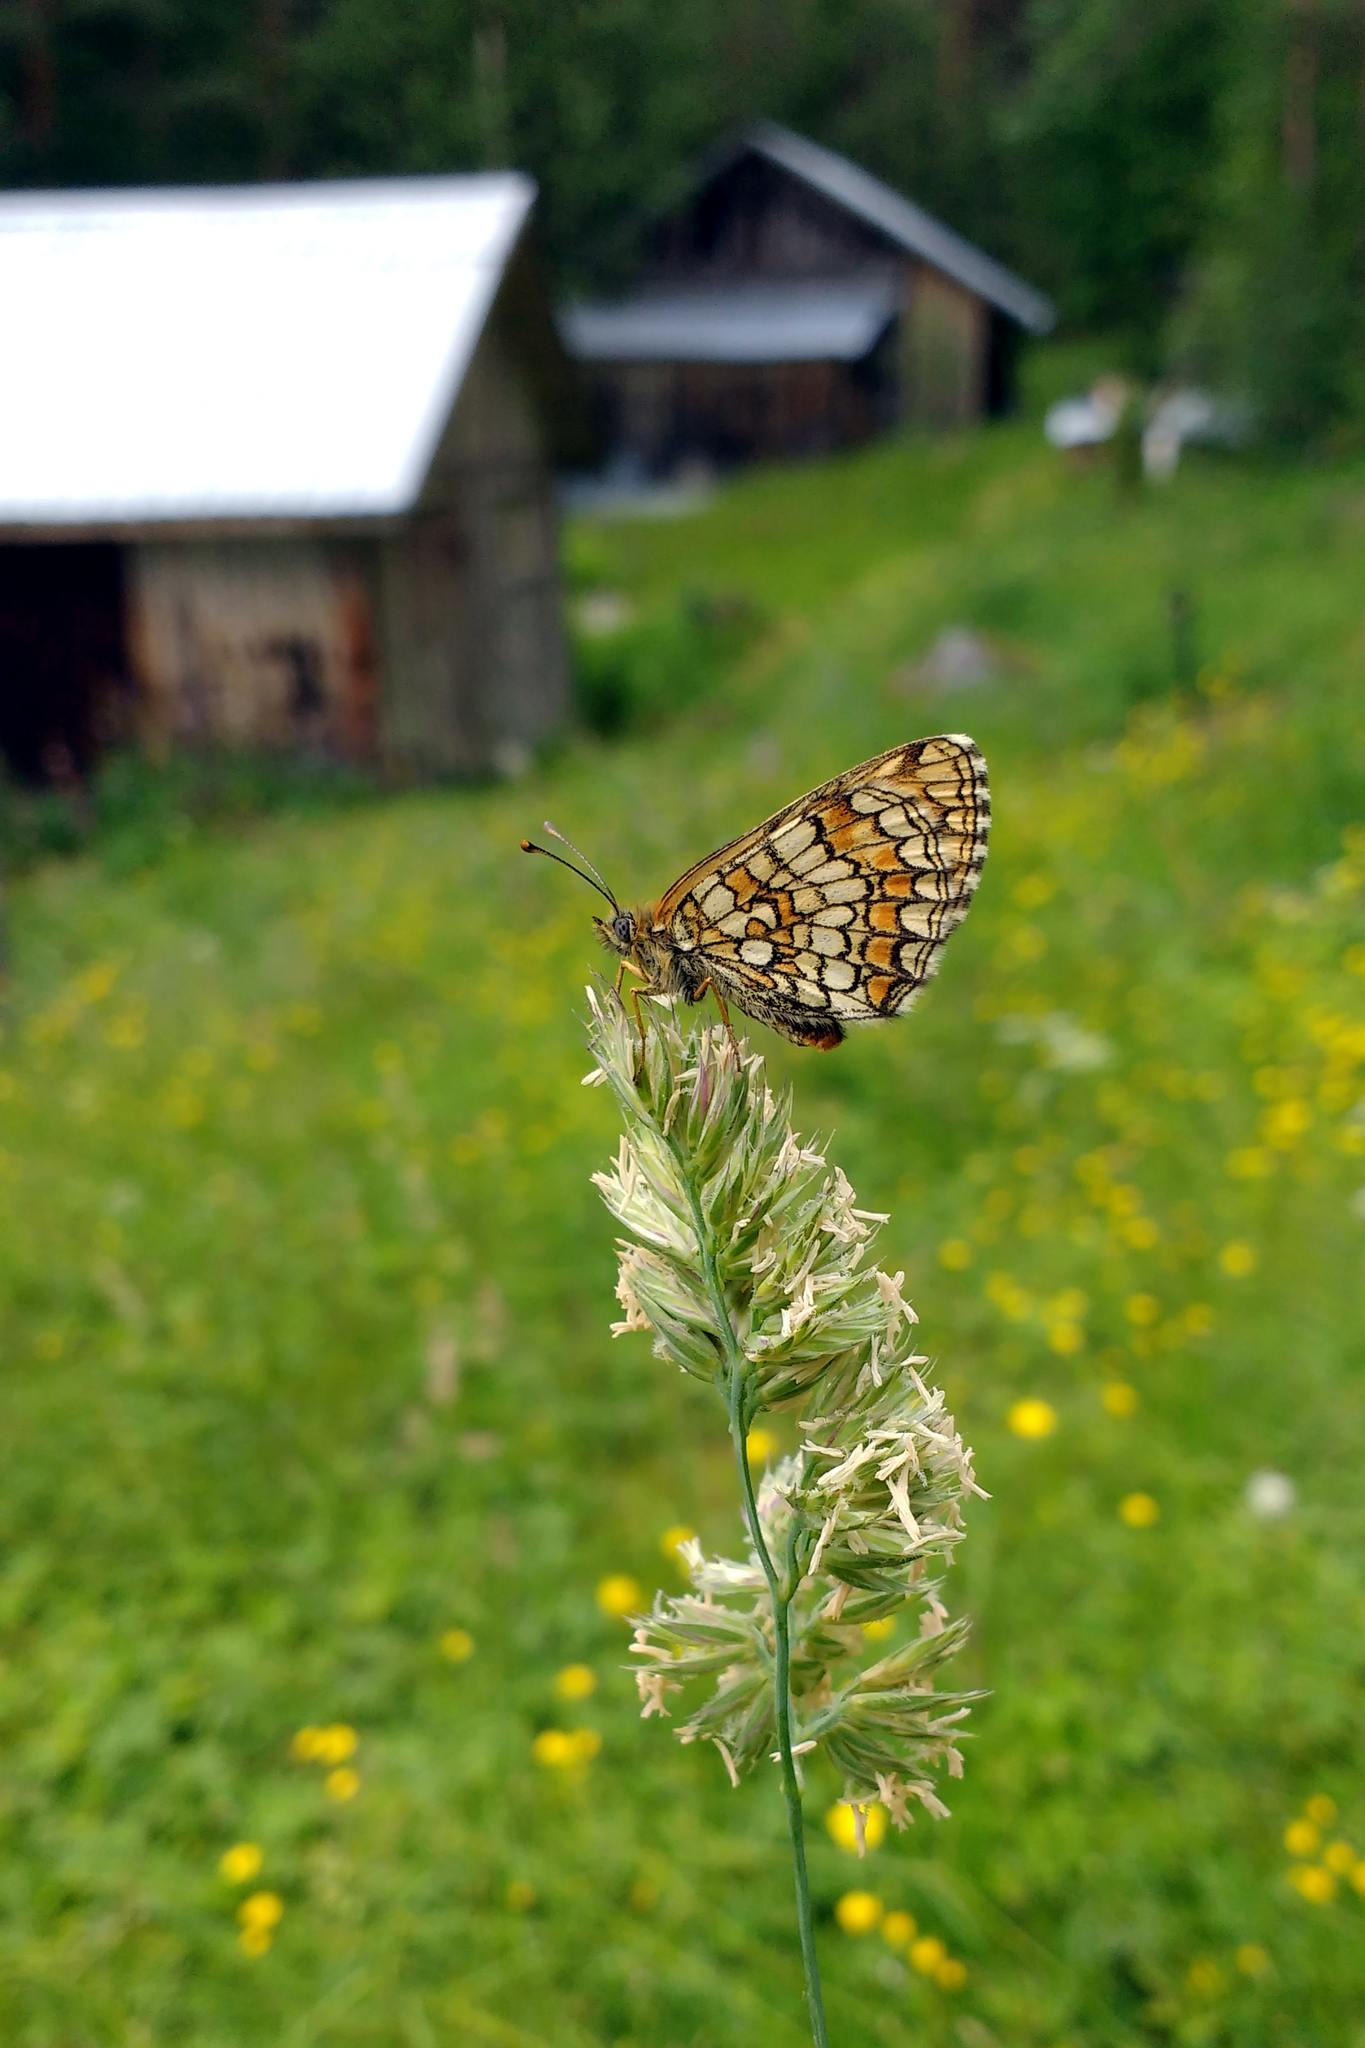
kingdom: Animalia
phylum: Arthropoda
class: Insecta
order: Lepidoptera
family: Nymphalidae
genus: Melitaea
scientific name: Melitaea athalia
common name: Heath fritillary
